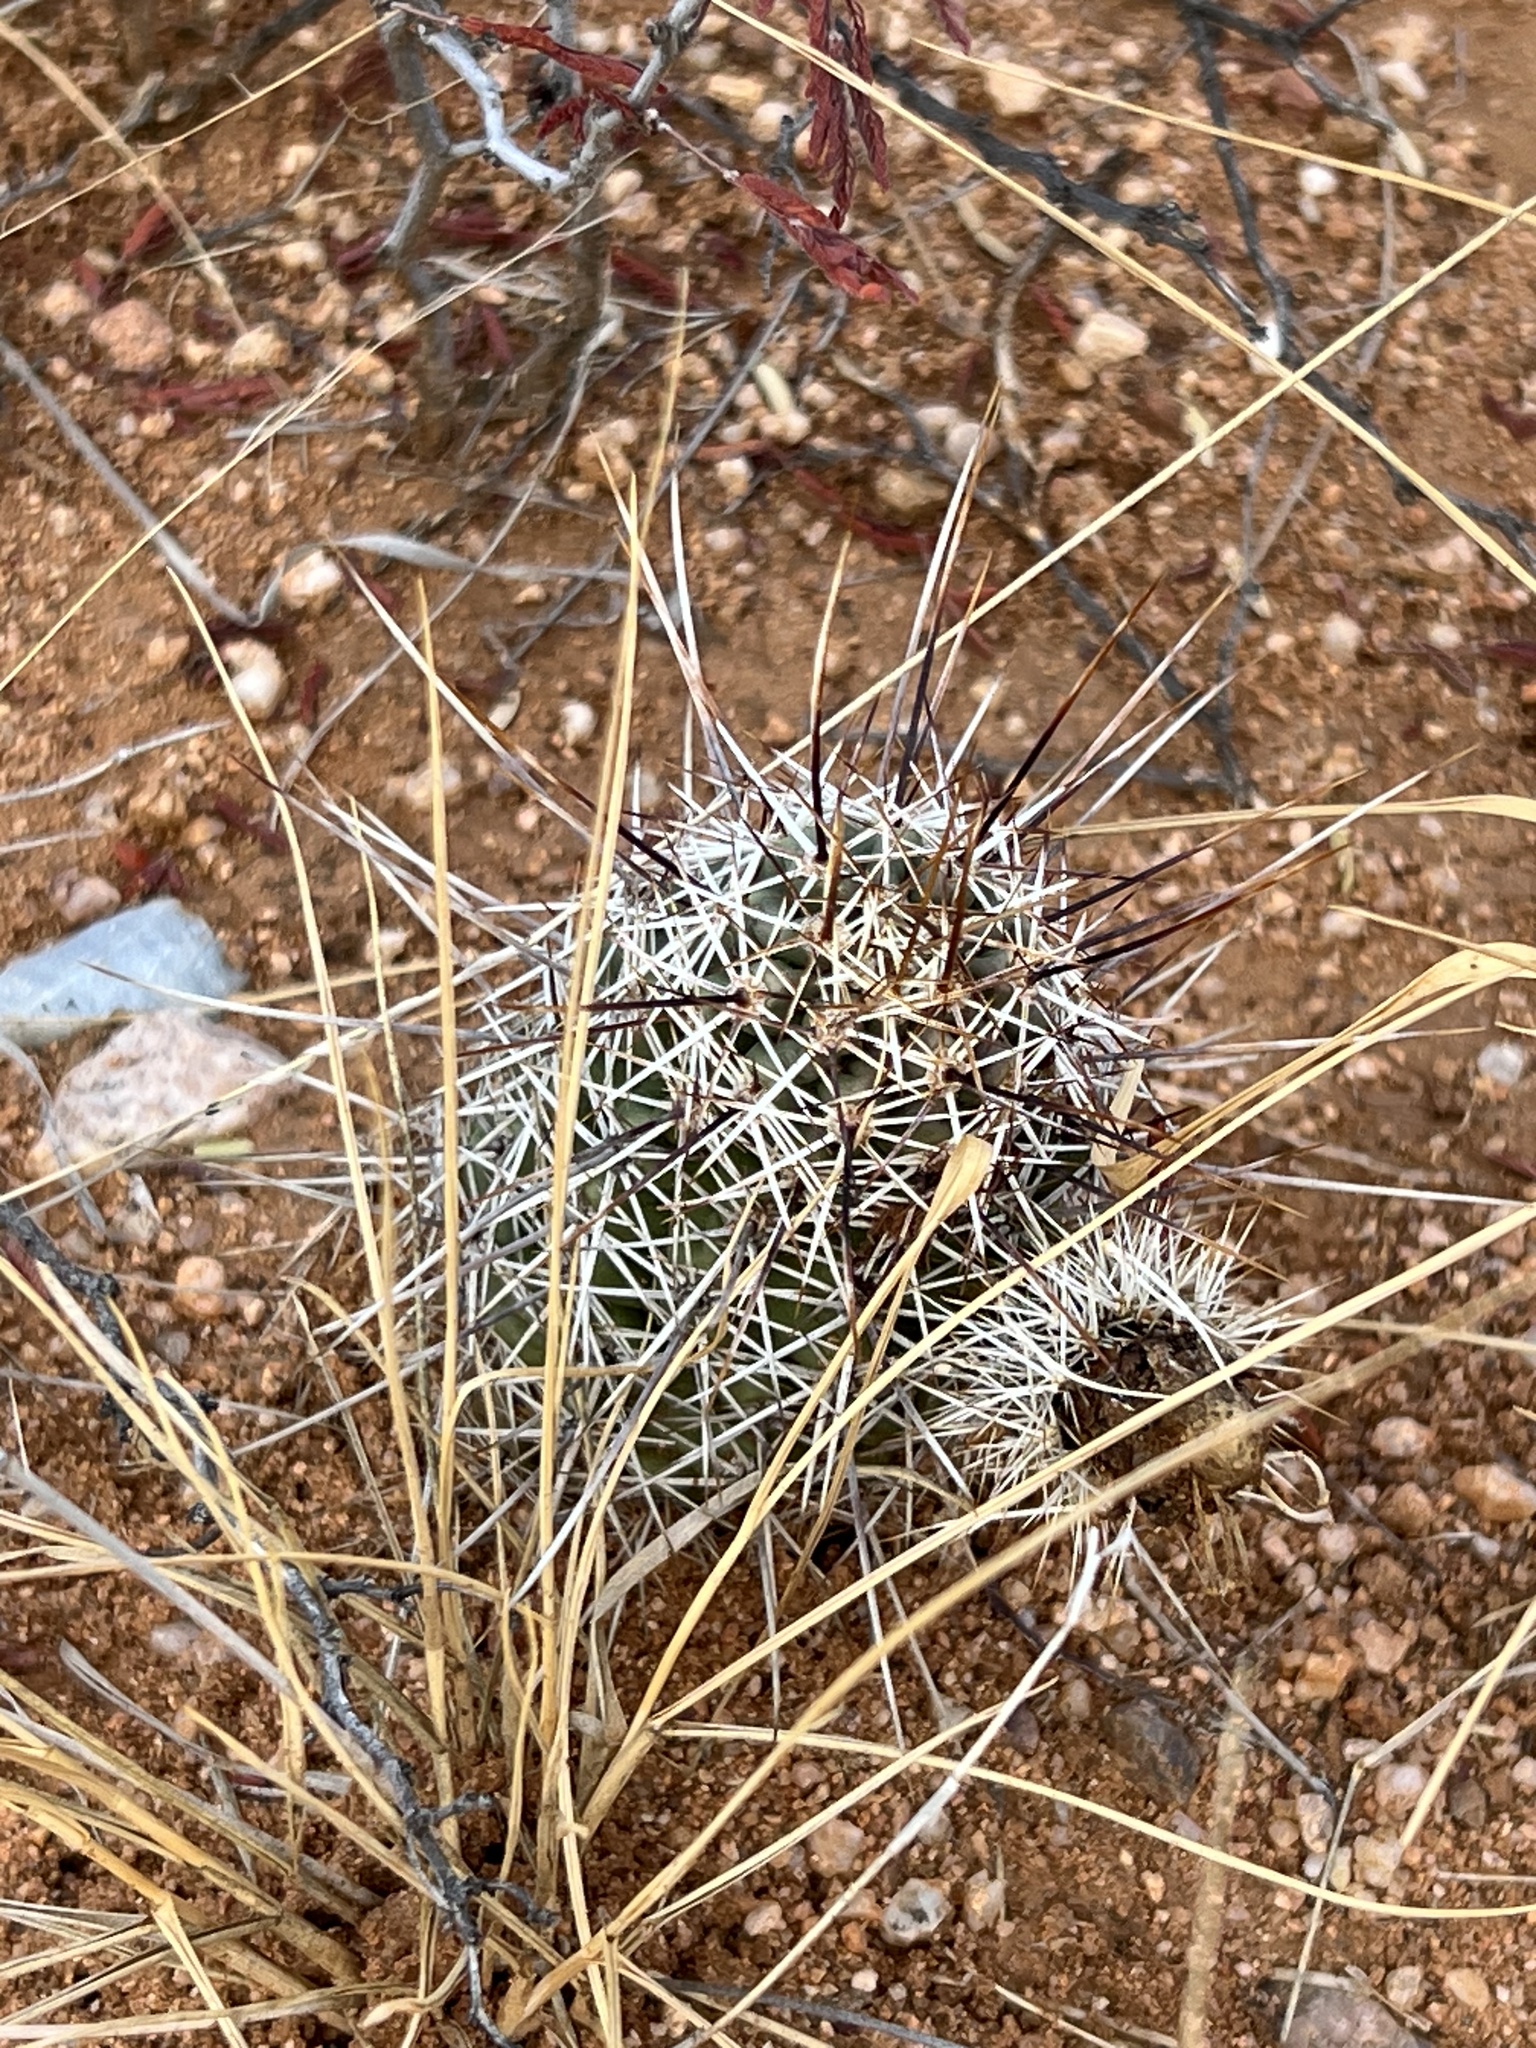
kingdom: Plantae
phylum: Tracheophyta
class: Magnoliopsida
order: Caryophyllales
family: Cactaceae
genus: Echinocereus
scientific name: Echinocereus fasciculatus
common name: Bundle hedgehog
